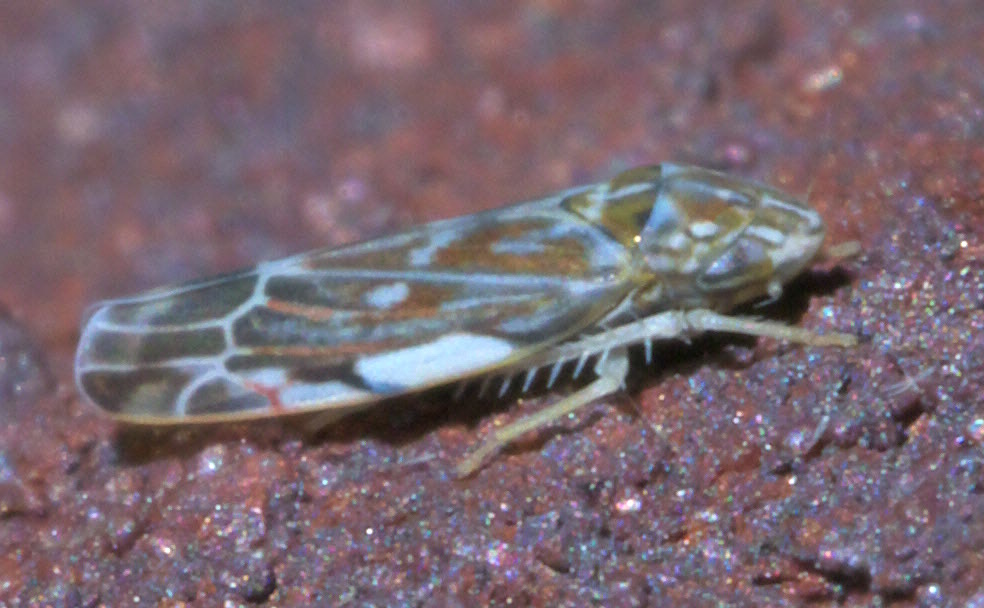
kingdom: Animalia
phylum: Arthropoda
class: Insecta
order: Hemiptera
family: Cicadellidae
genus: Erasmoneura
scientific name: Erasmoneura vulnerata
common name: The wounded leafhopper
